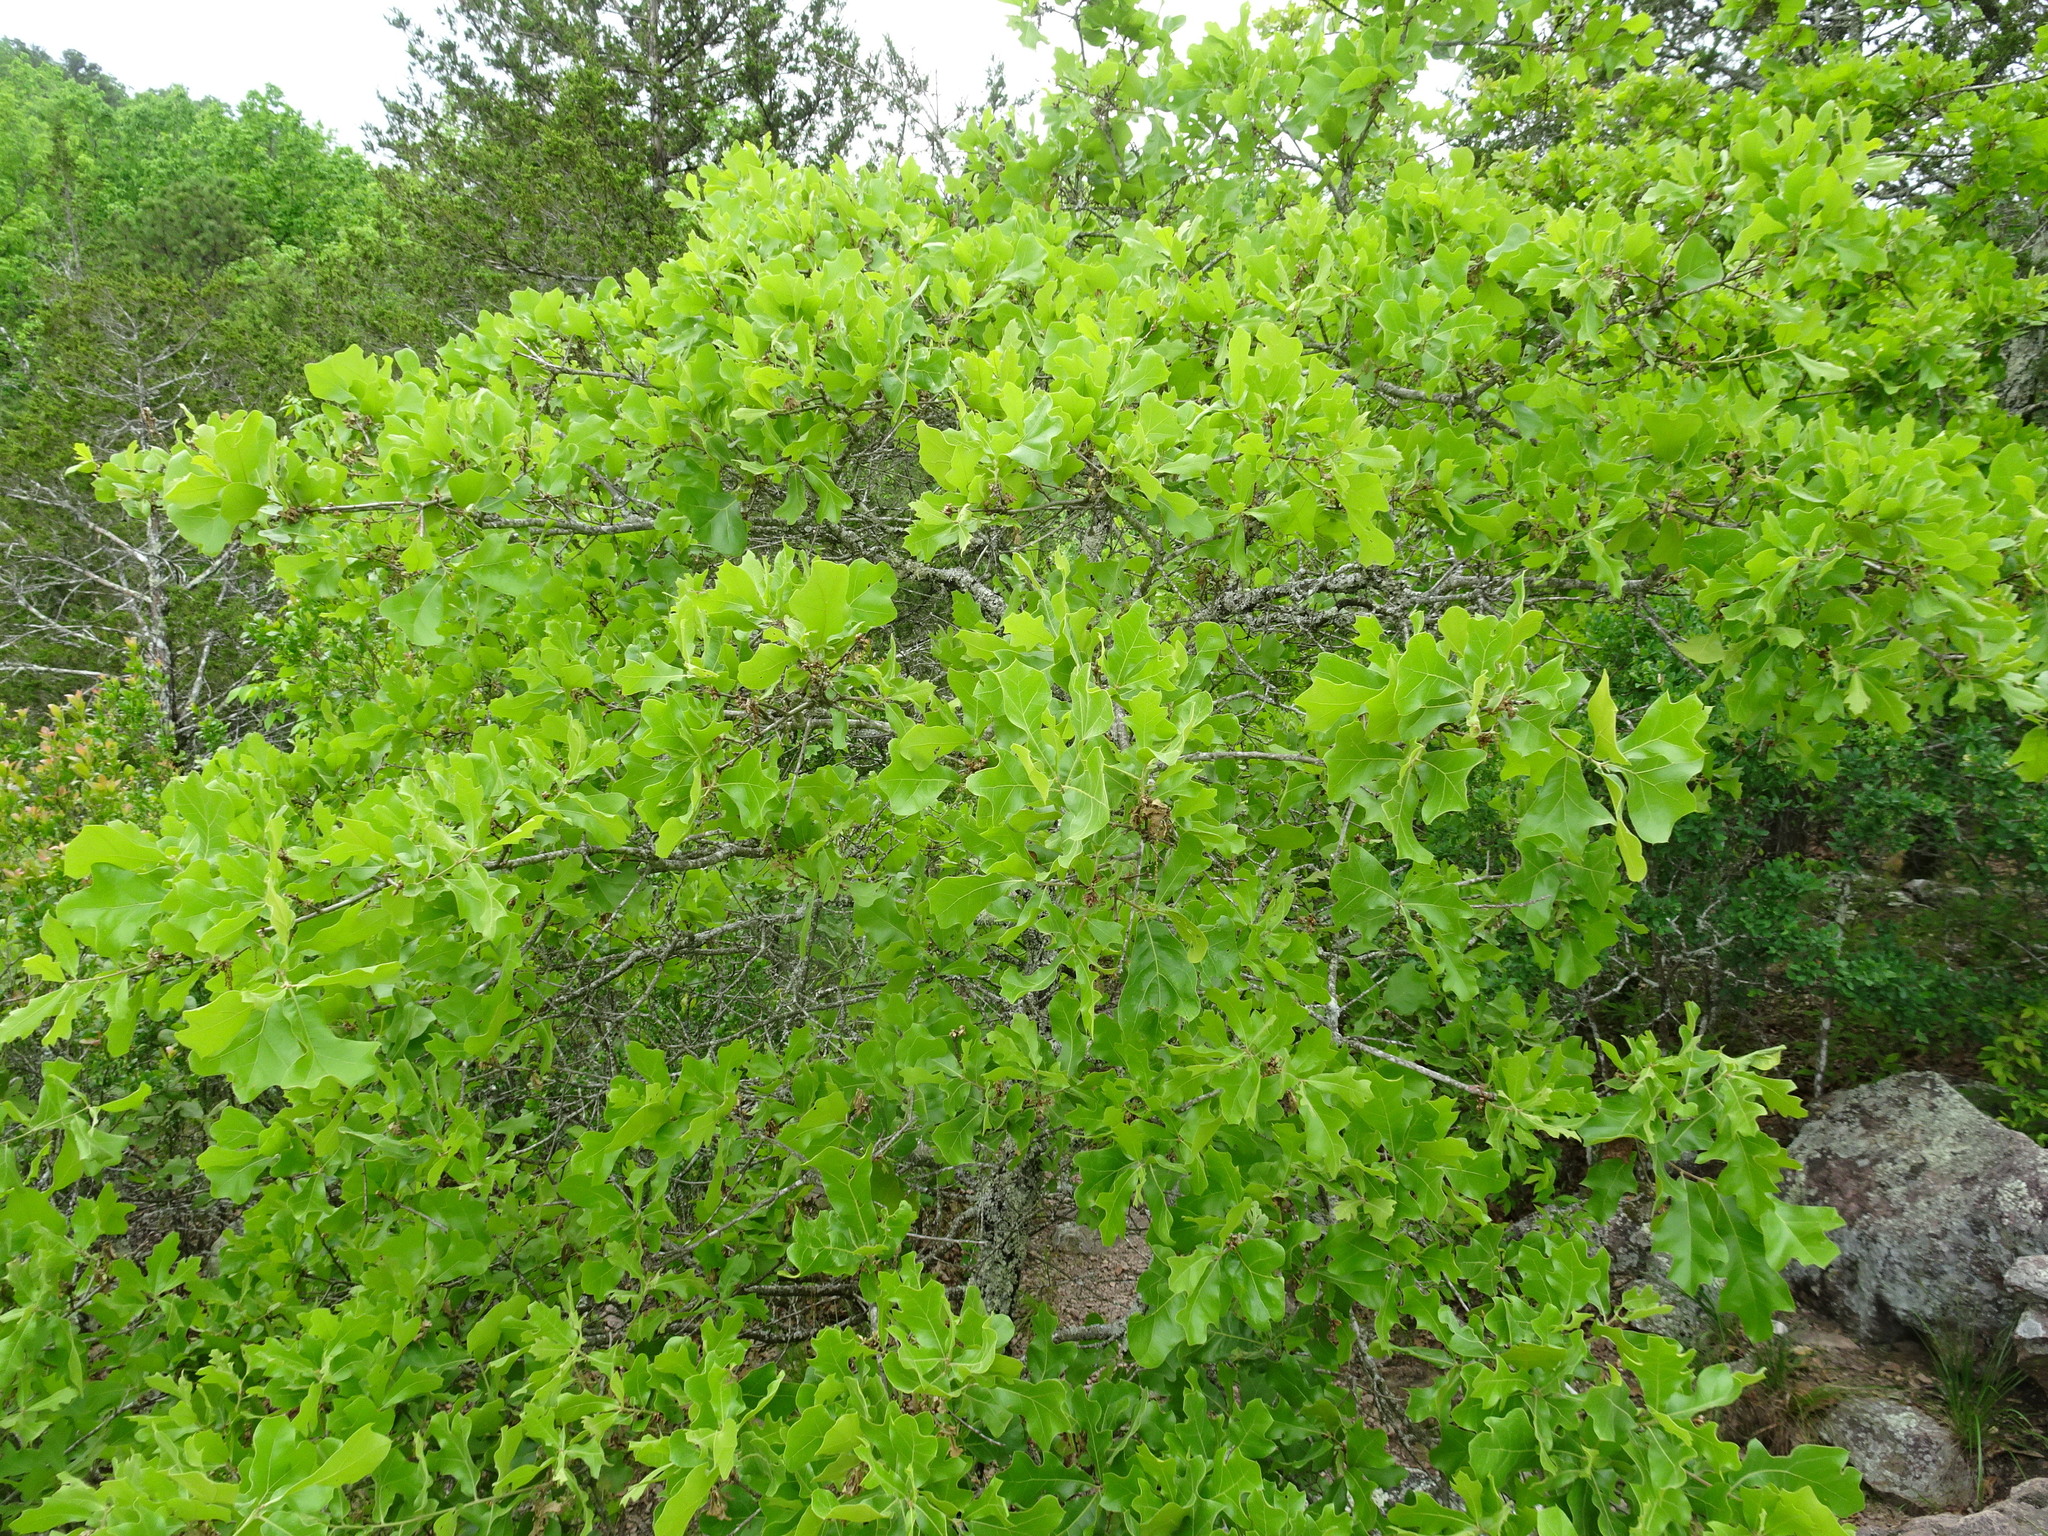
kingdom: Plantae
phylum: Tracheophyta
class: Magnoliopsida
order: Fagales
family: Fagaceae
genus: Quercus
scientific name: Quercus marilandica
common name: Blackjack oak
